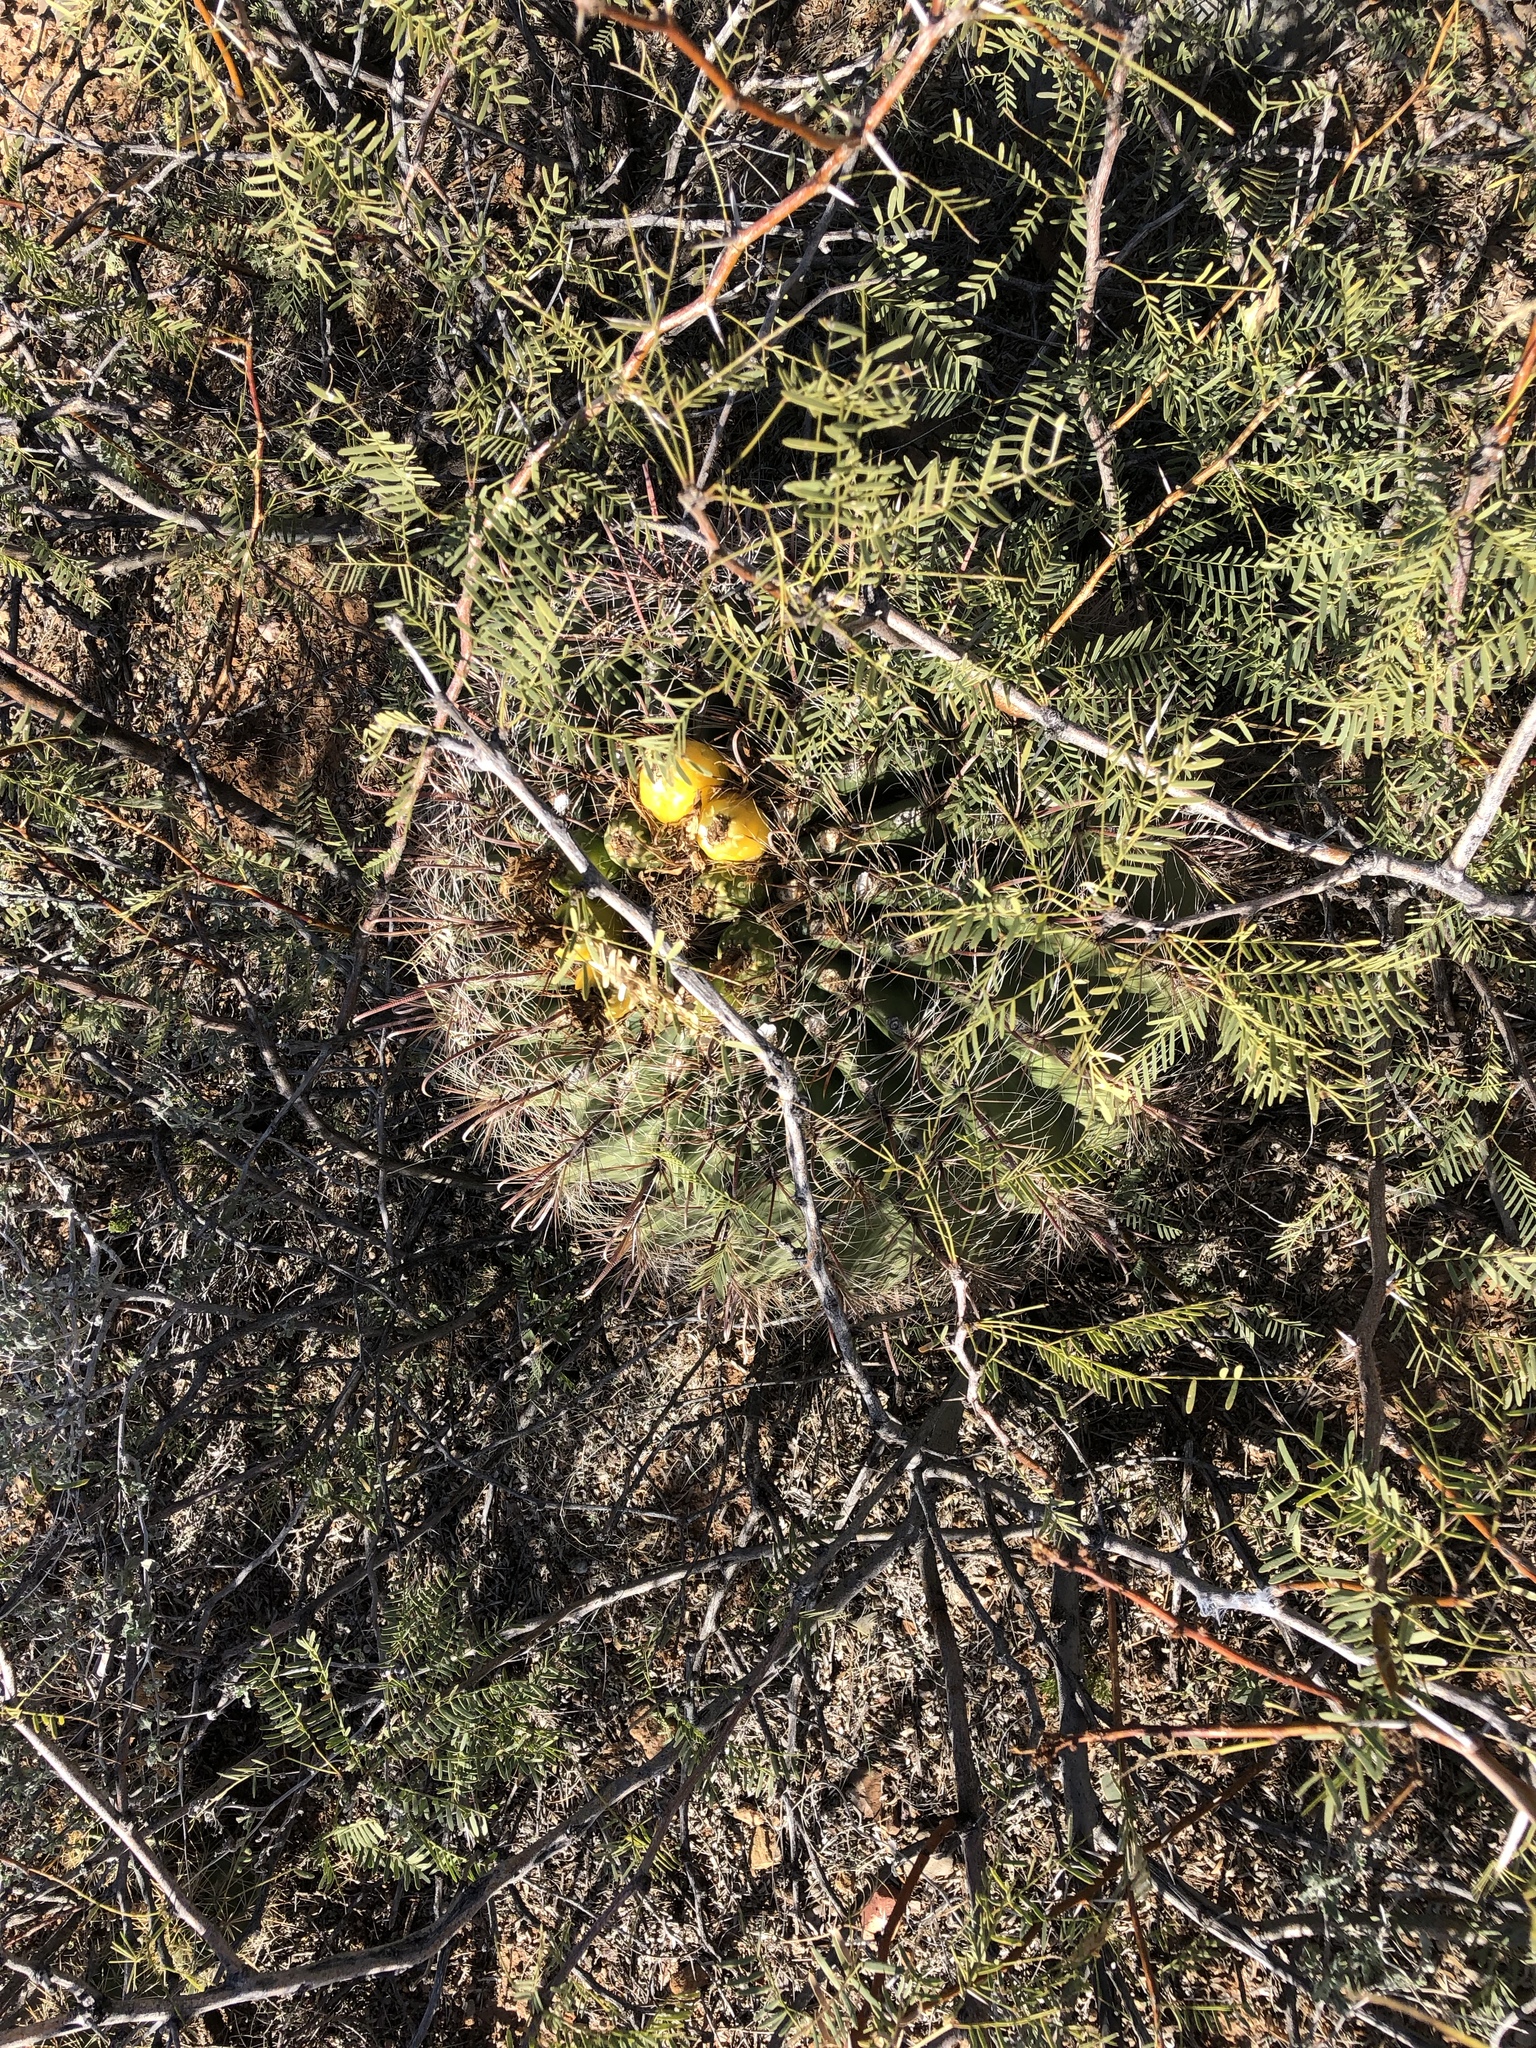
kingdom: Plantae
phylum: Tracheophyta
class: Magnoliopsida
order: Caryophyllales
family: Cactaceae
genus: Ferocactus
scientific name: Ferocactus wislizeni
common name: Candy barrel cactus
